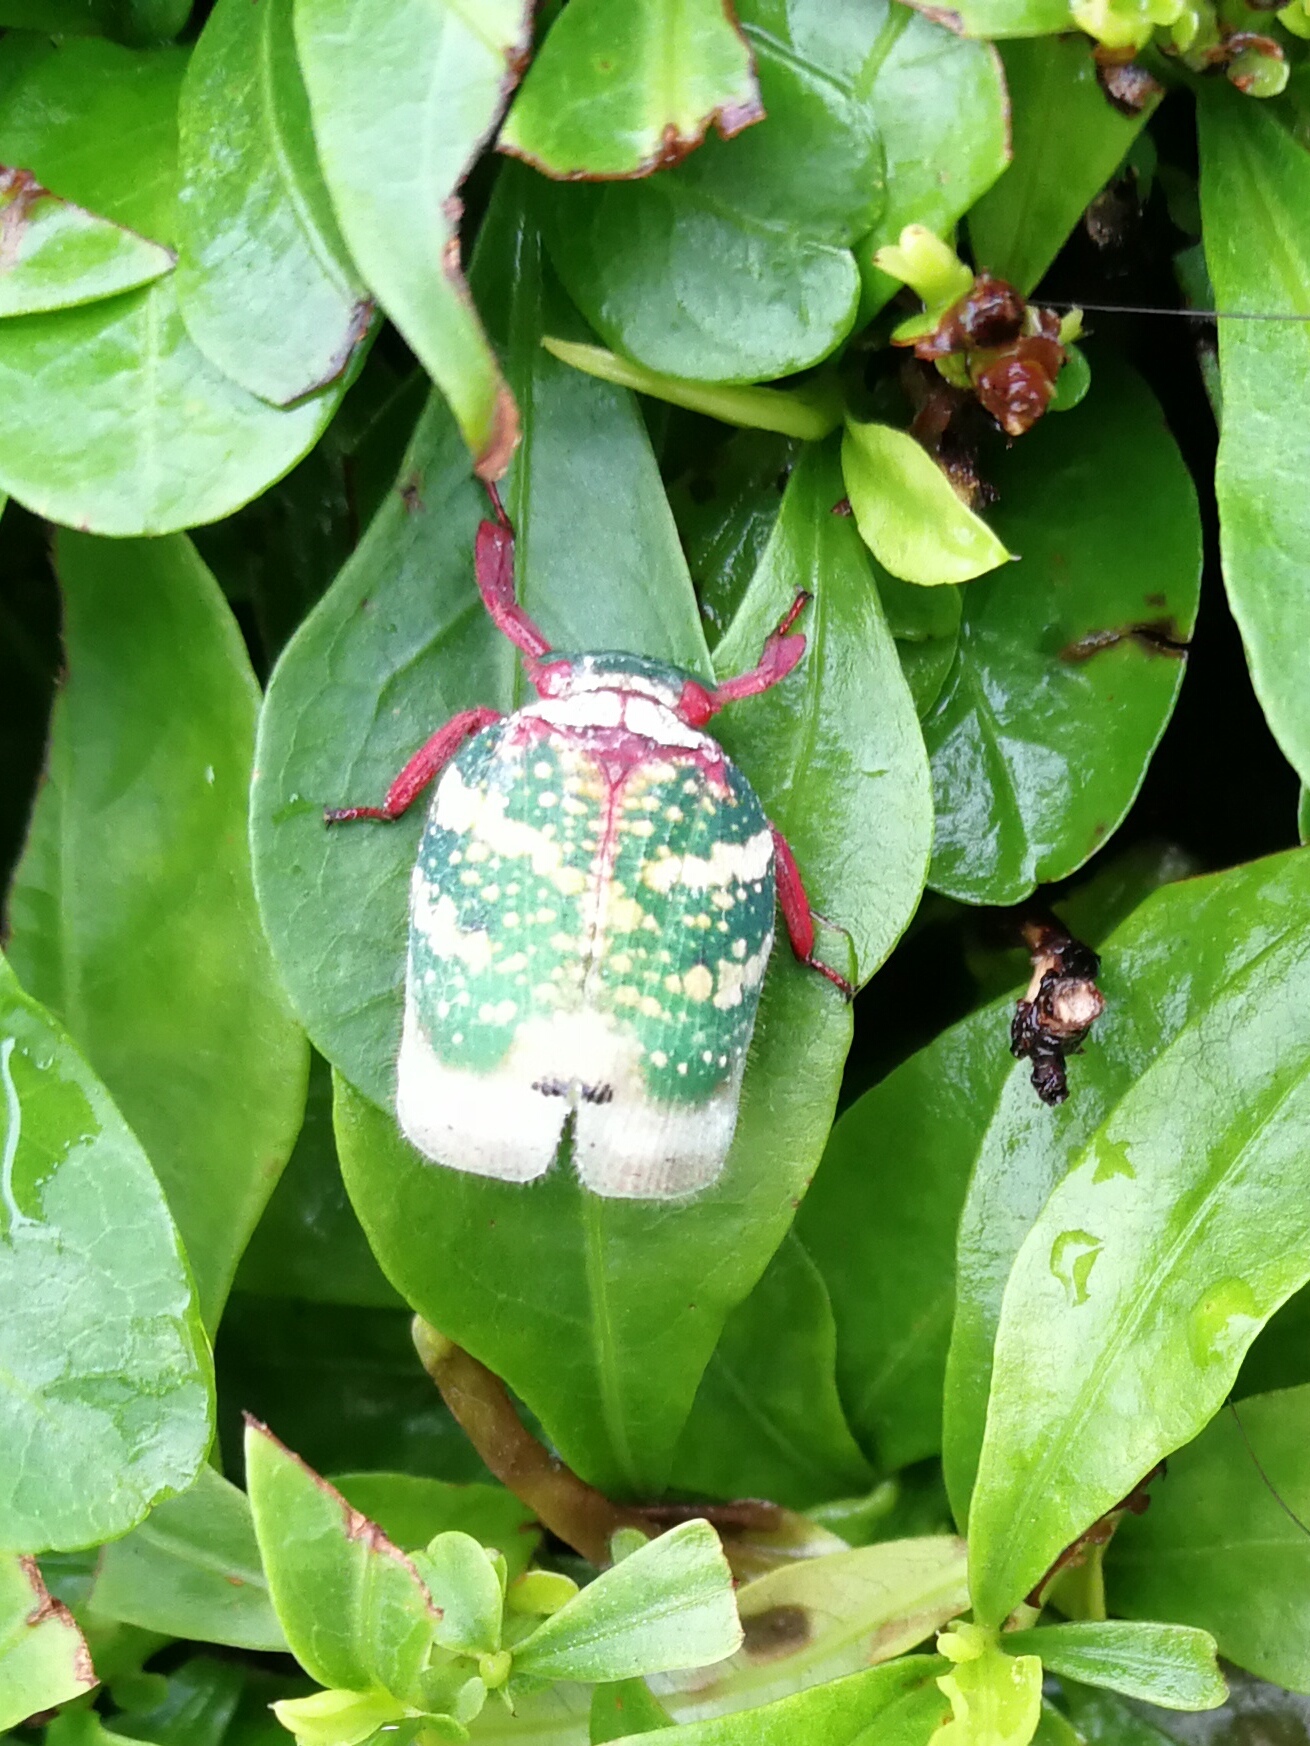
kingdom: Animalia
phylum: Arthropoda
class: Insecta
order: Hemiptera
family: Eurybrachidae
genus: Eurybrachys
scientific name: Eurybrachys tomentosa
